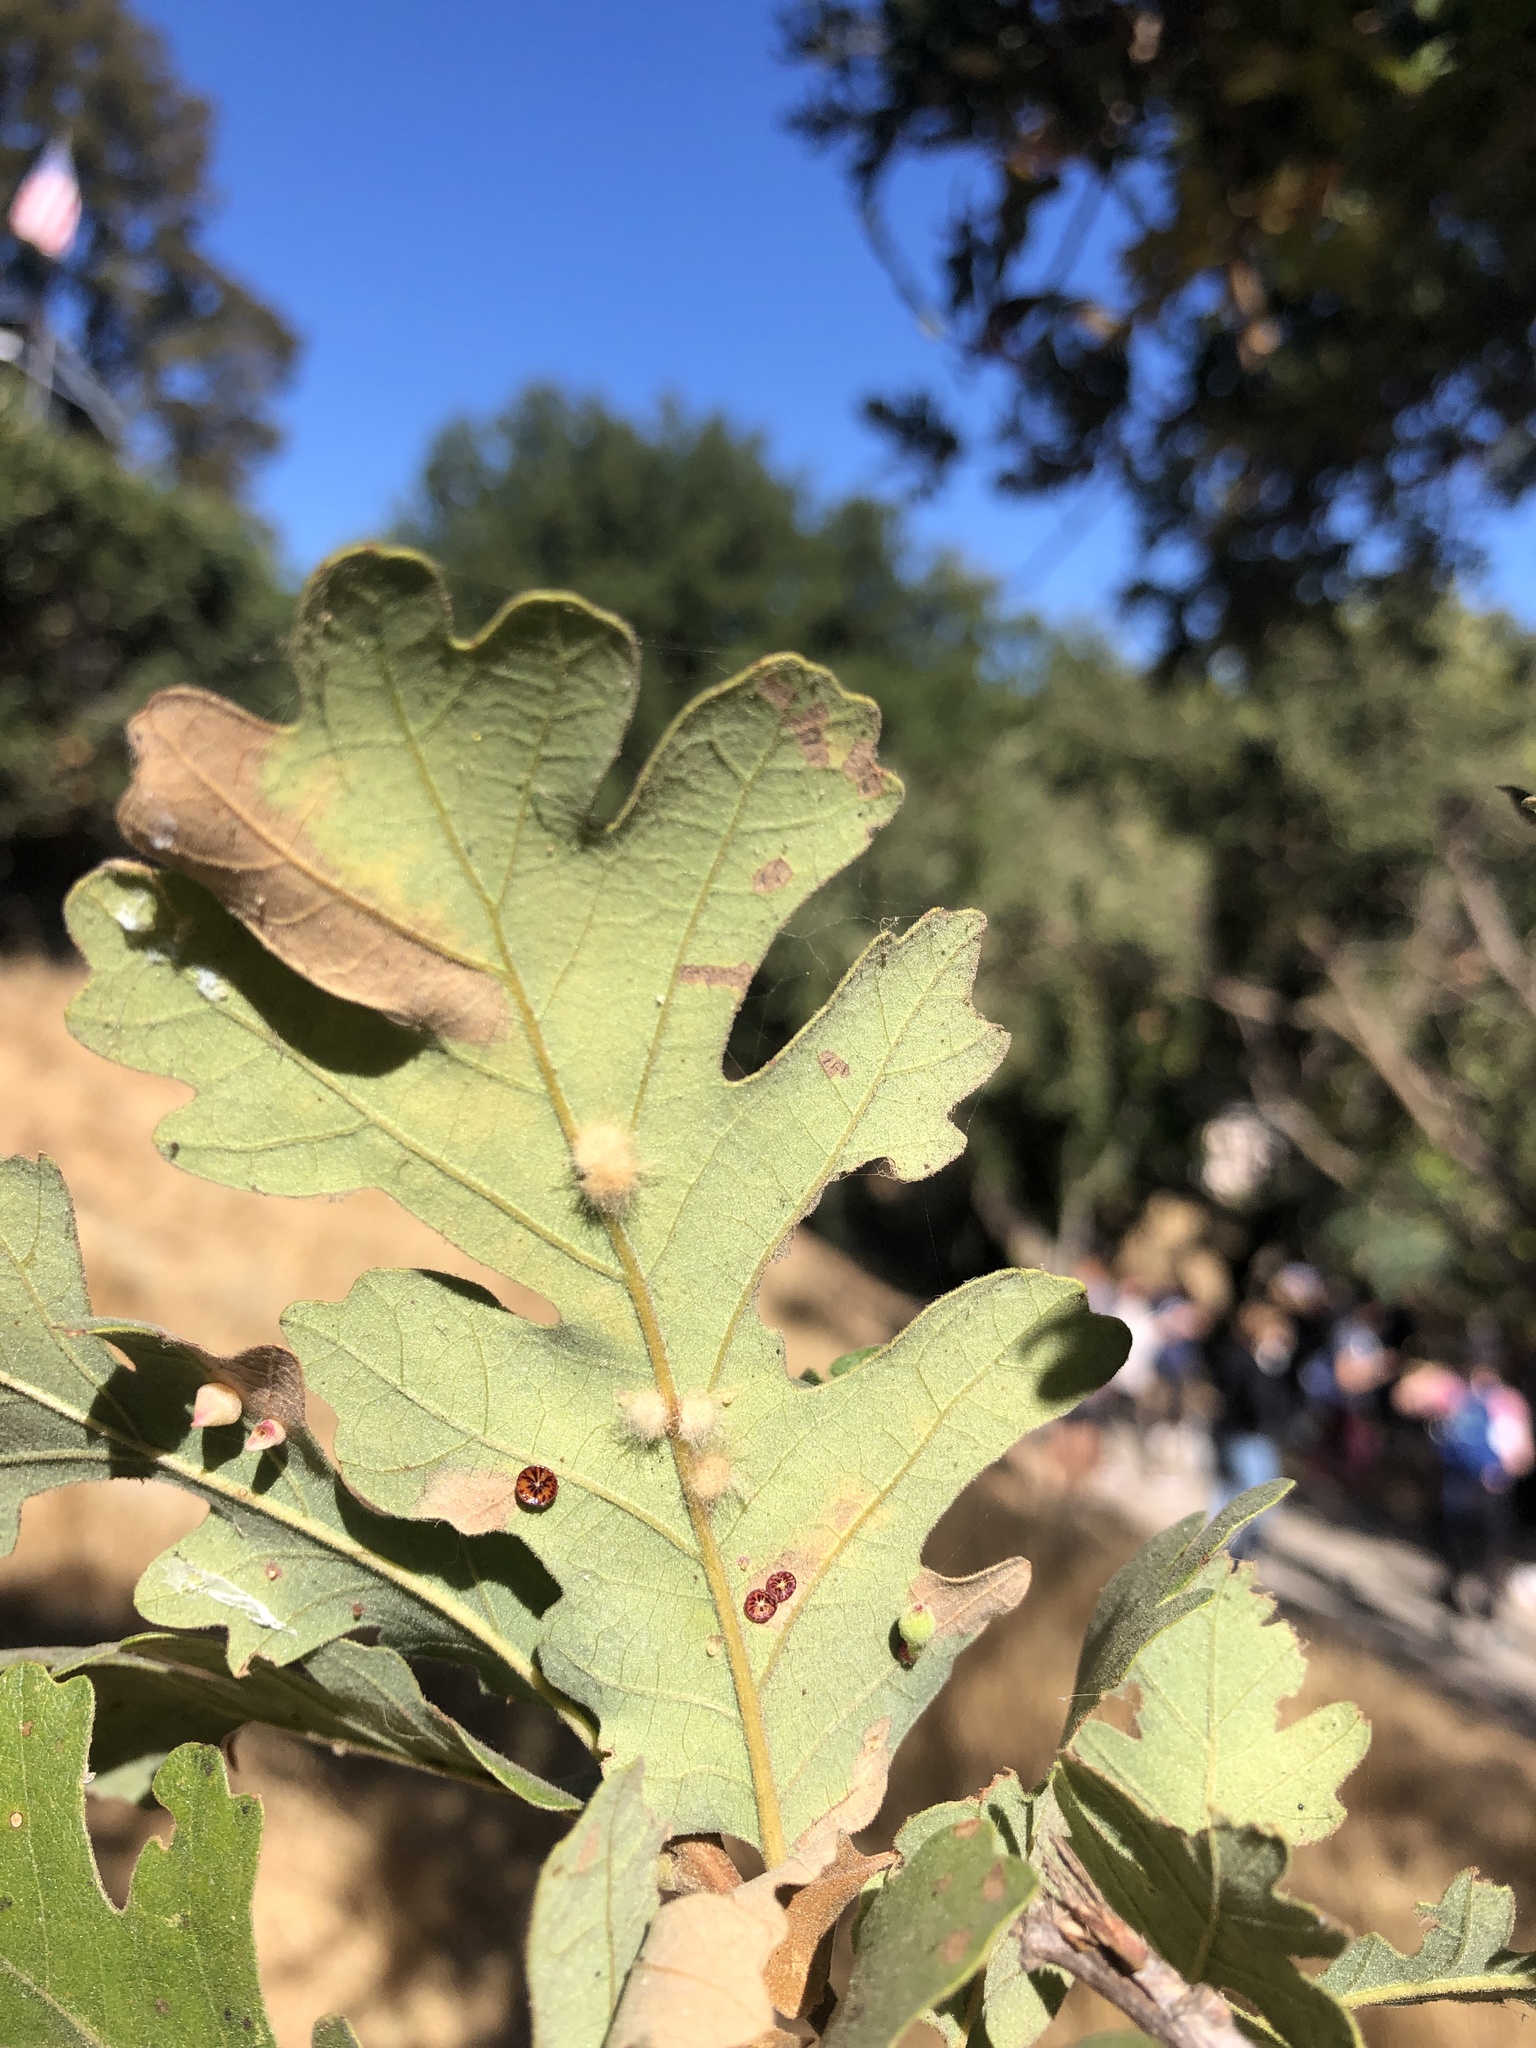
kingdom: Animalia
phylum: Arthropoda
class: Insecta
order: Hymenoptera
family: Cynipidae
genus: Andricus
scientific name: Andricus Druon fullawayi
